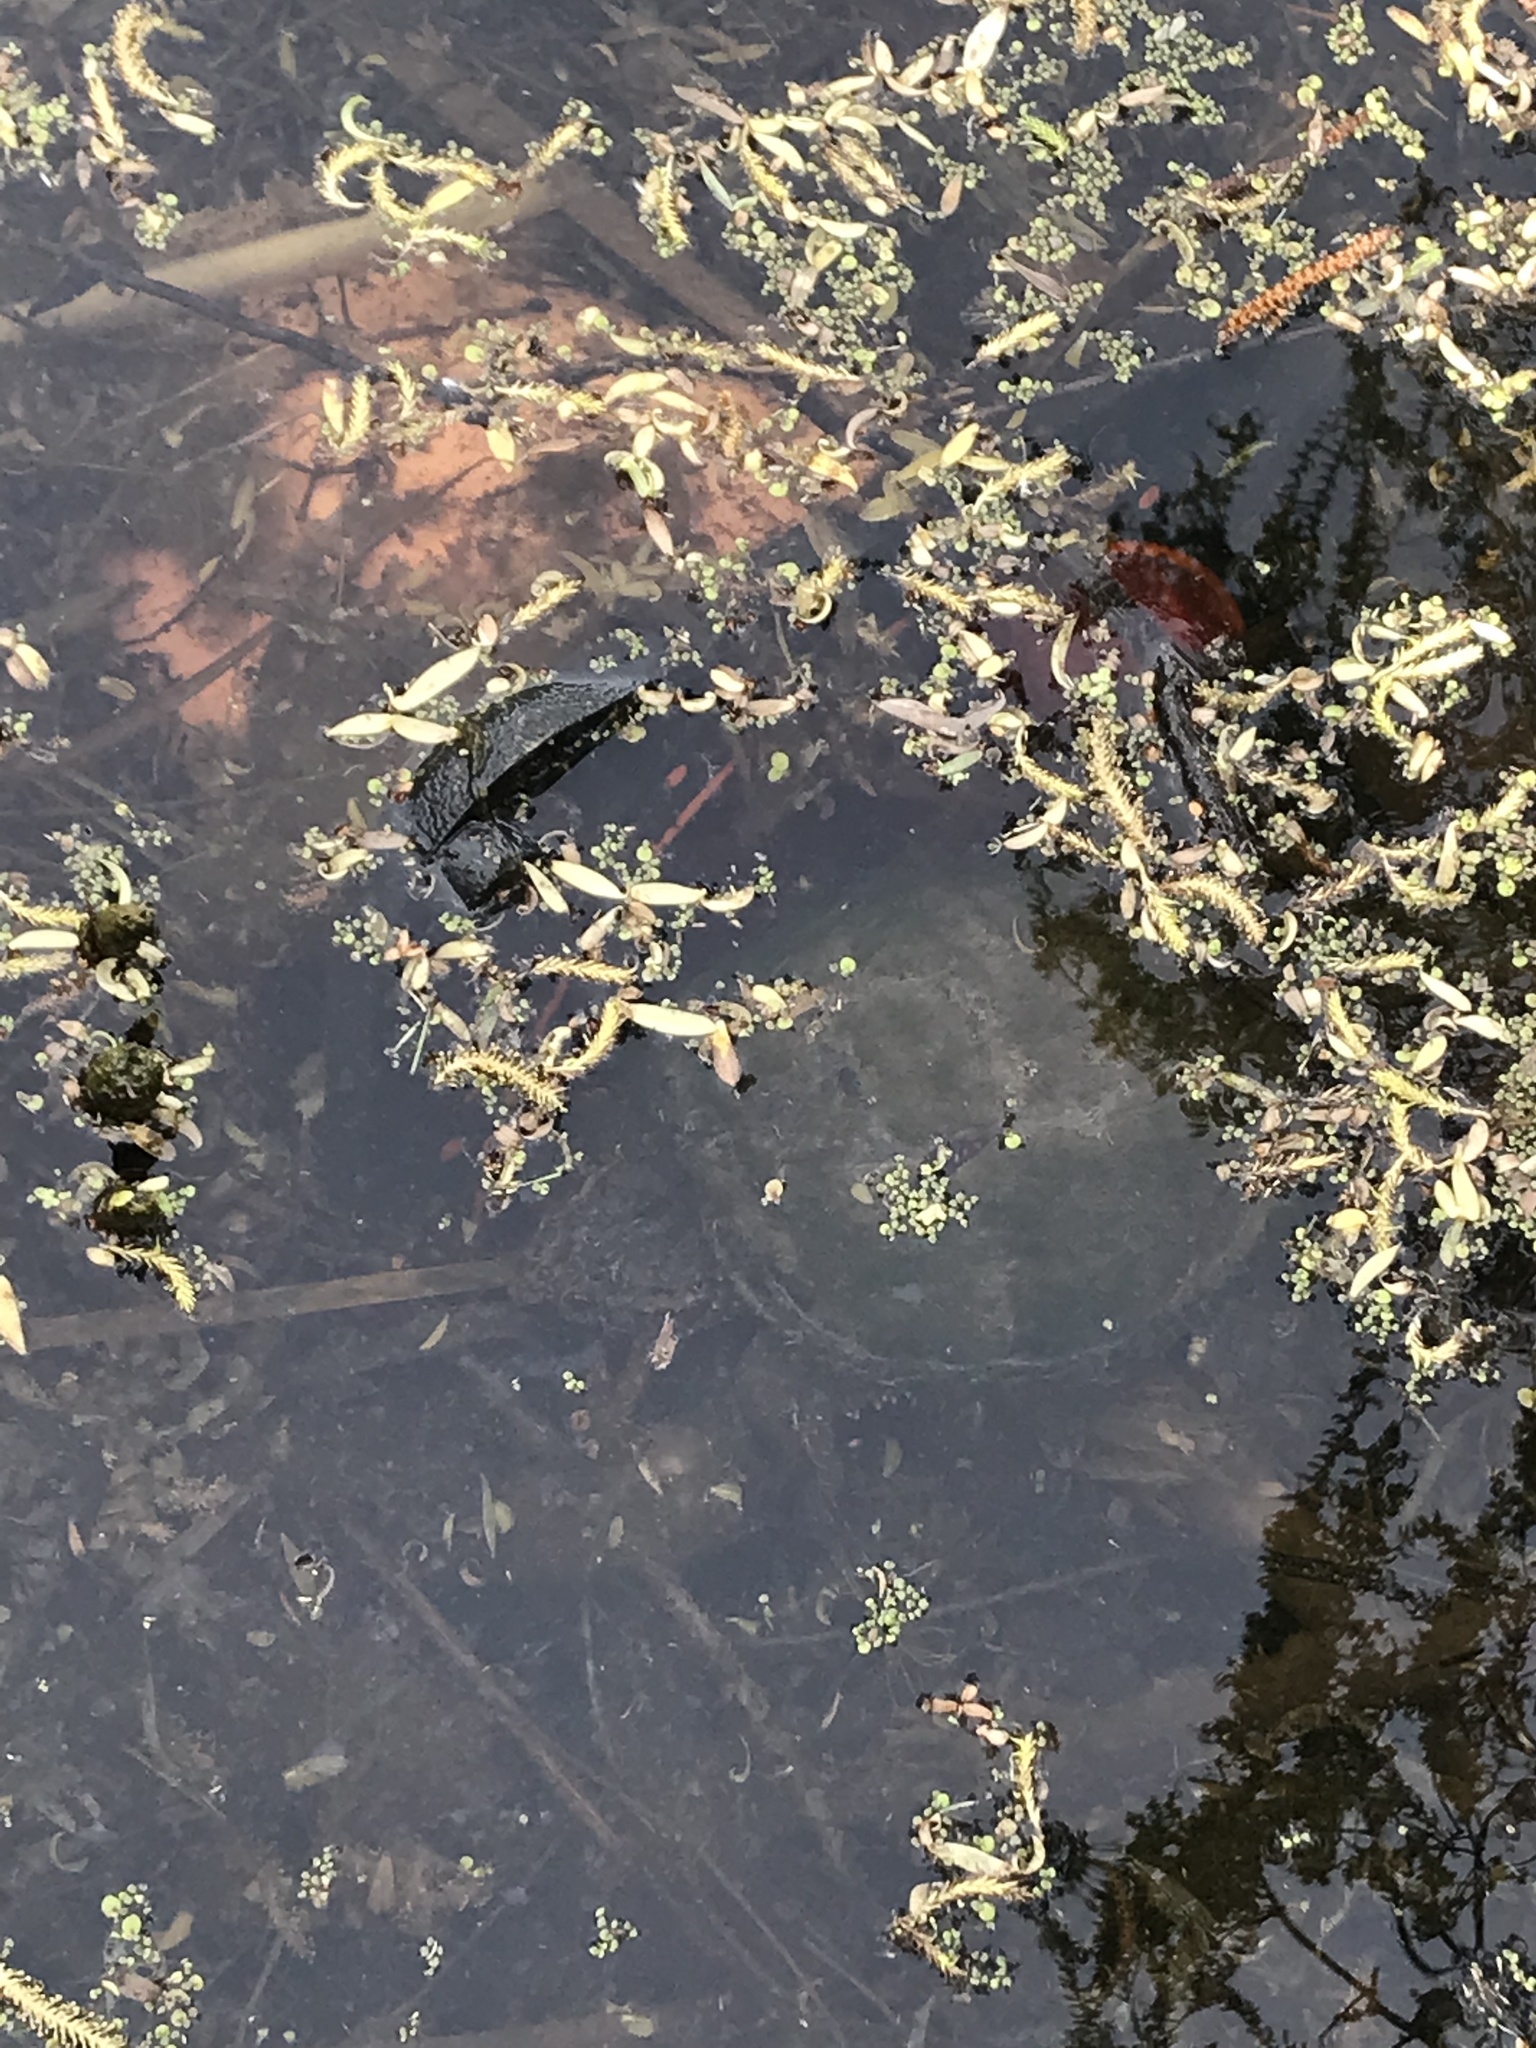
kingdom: Animalia
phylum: Chordata
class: Testudines
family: Chelydridae
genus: Chelydra
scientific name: Chelydra serpentina
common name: Common snapping turtle
